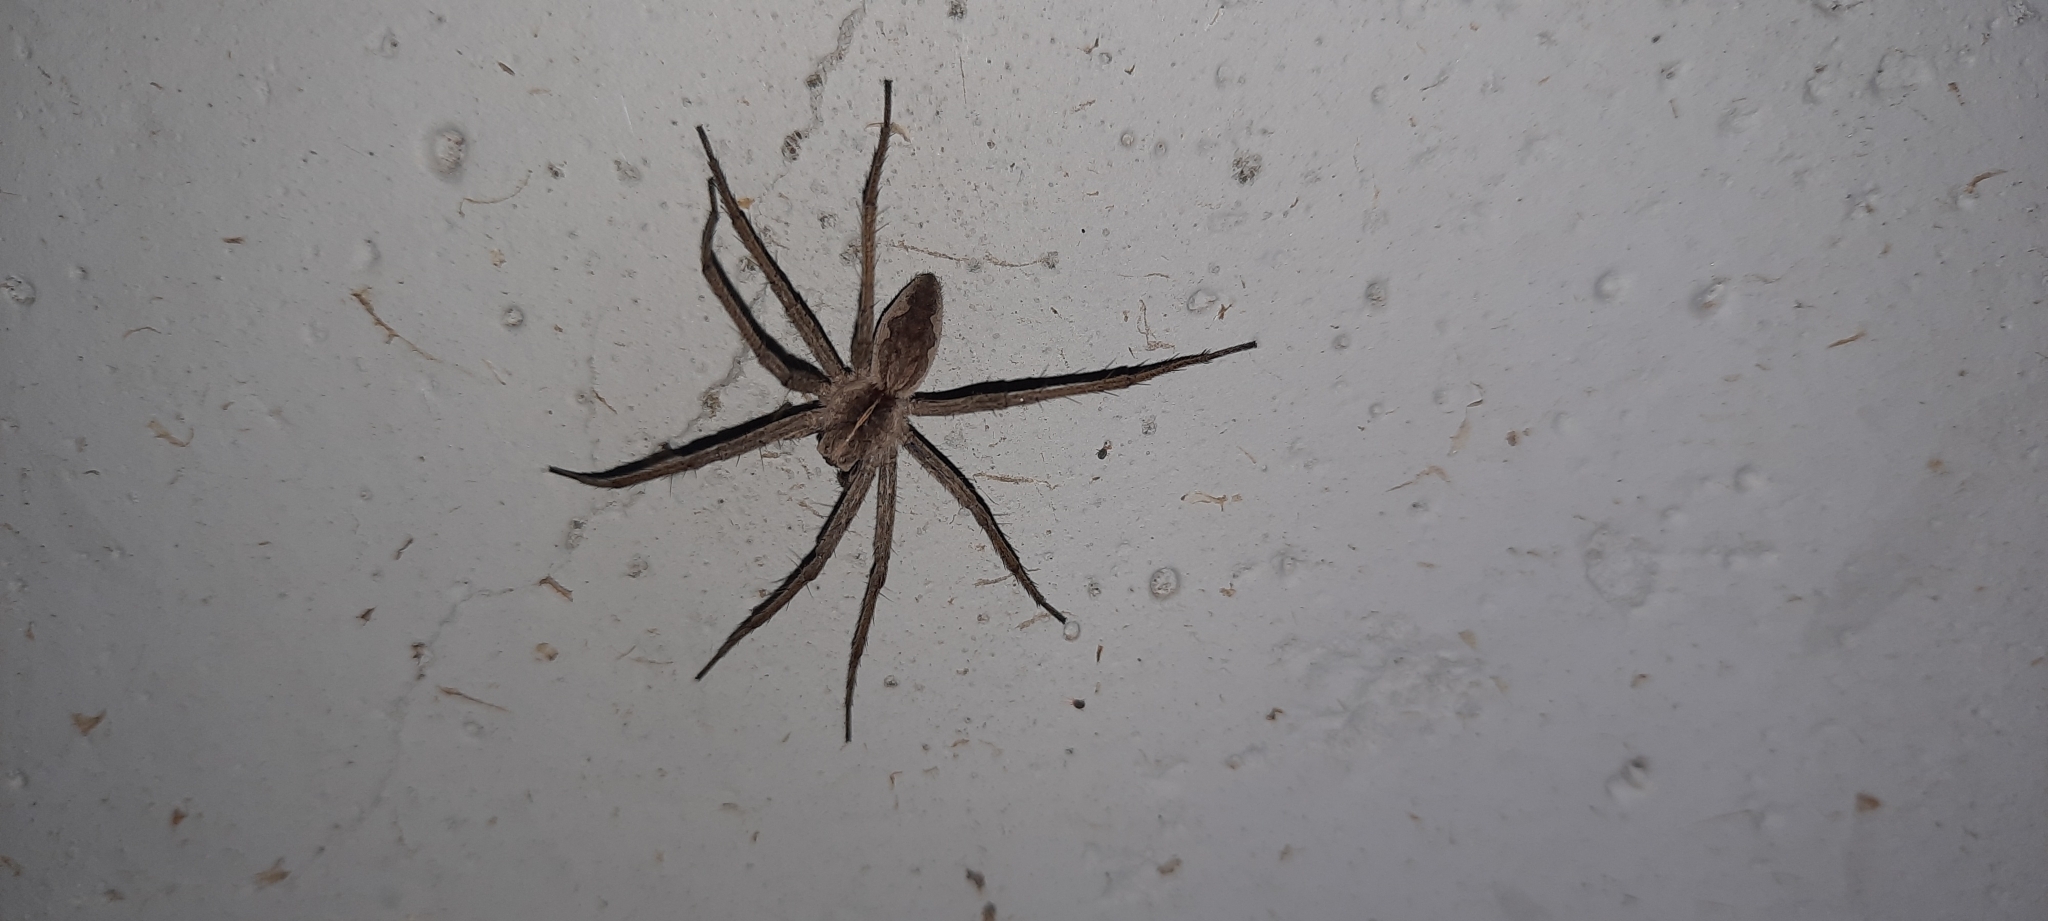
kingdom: Animalia
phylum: Arthropoda
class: Arachnida
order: Araneae
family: Pisauridae
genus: Pisaura
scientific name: Pisaura
